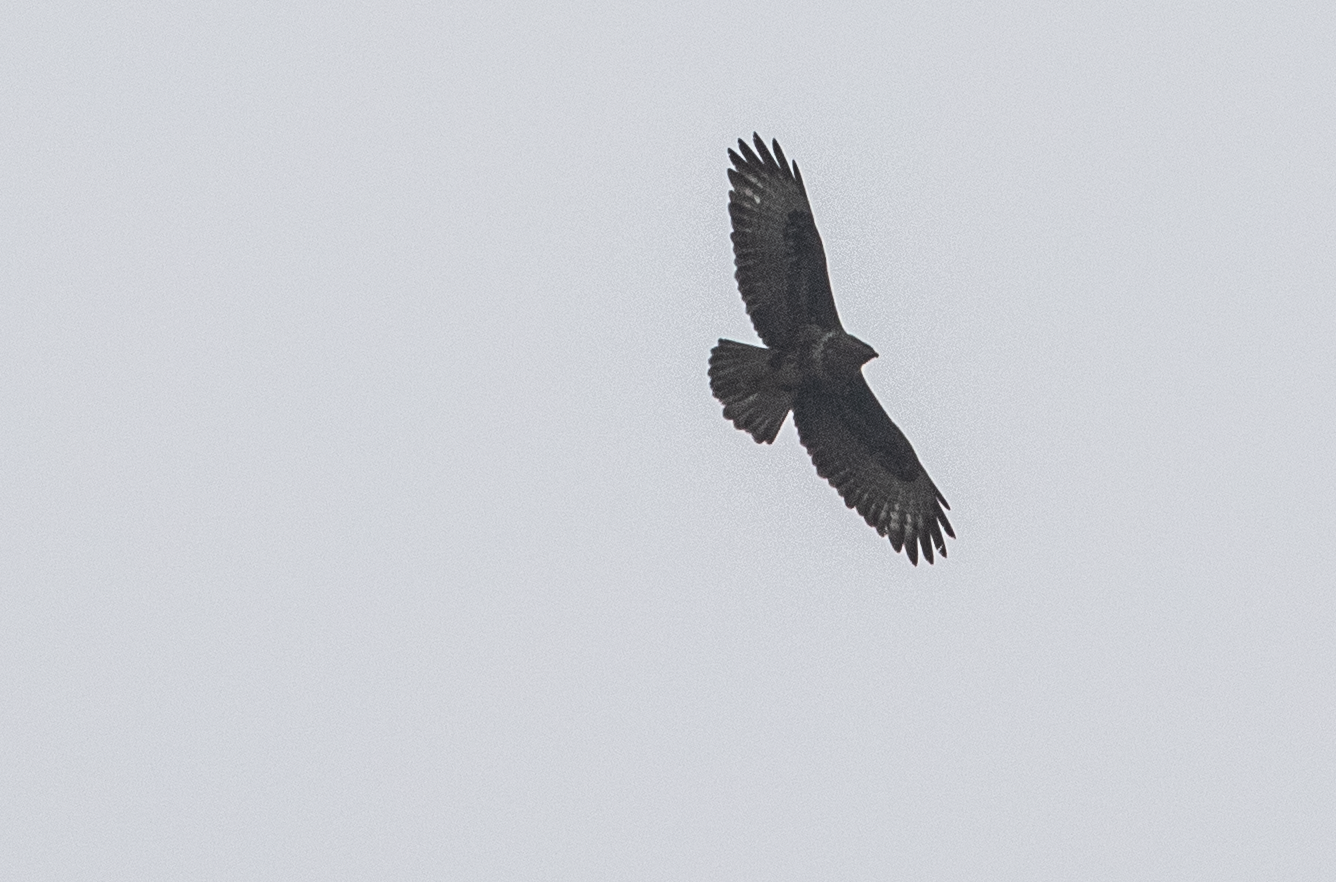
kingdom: Animalia
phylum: Chordata
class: Aves
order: Accipitriformes
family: Accipitridae
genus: Buteo
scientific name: Buteo buteo
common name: Common buzzard
